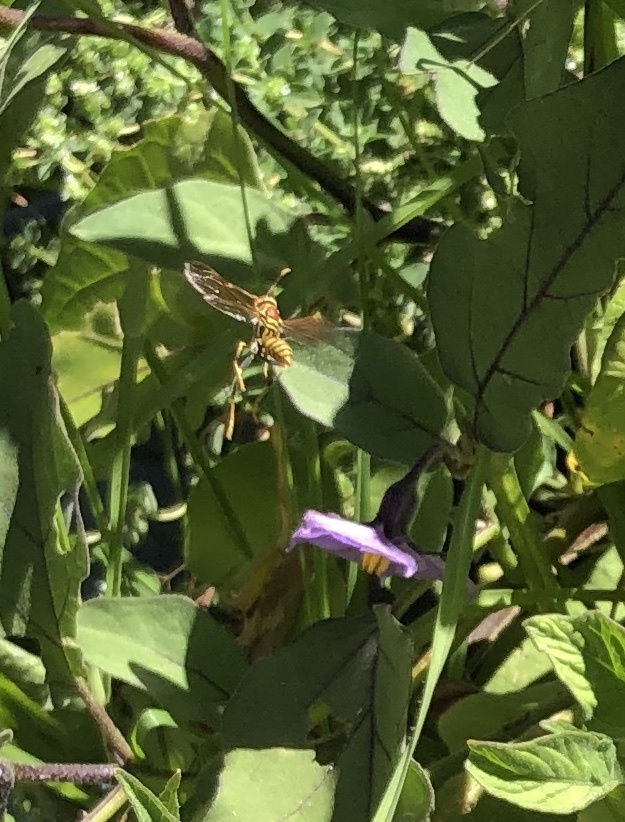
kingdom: Animalia
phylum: Arthropoda
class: Insecta
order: Hymenoptera
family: Eumenidae
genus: Polistes
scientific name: Polistes exclamans
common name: Paper wasp
